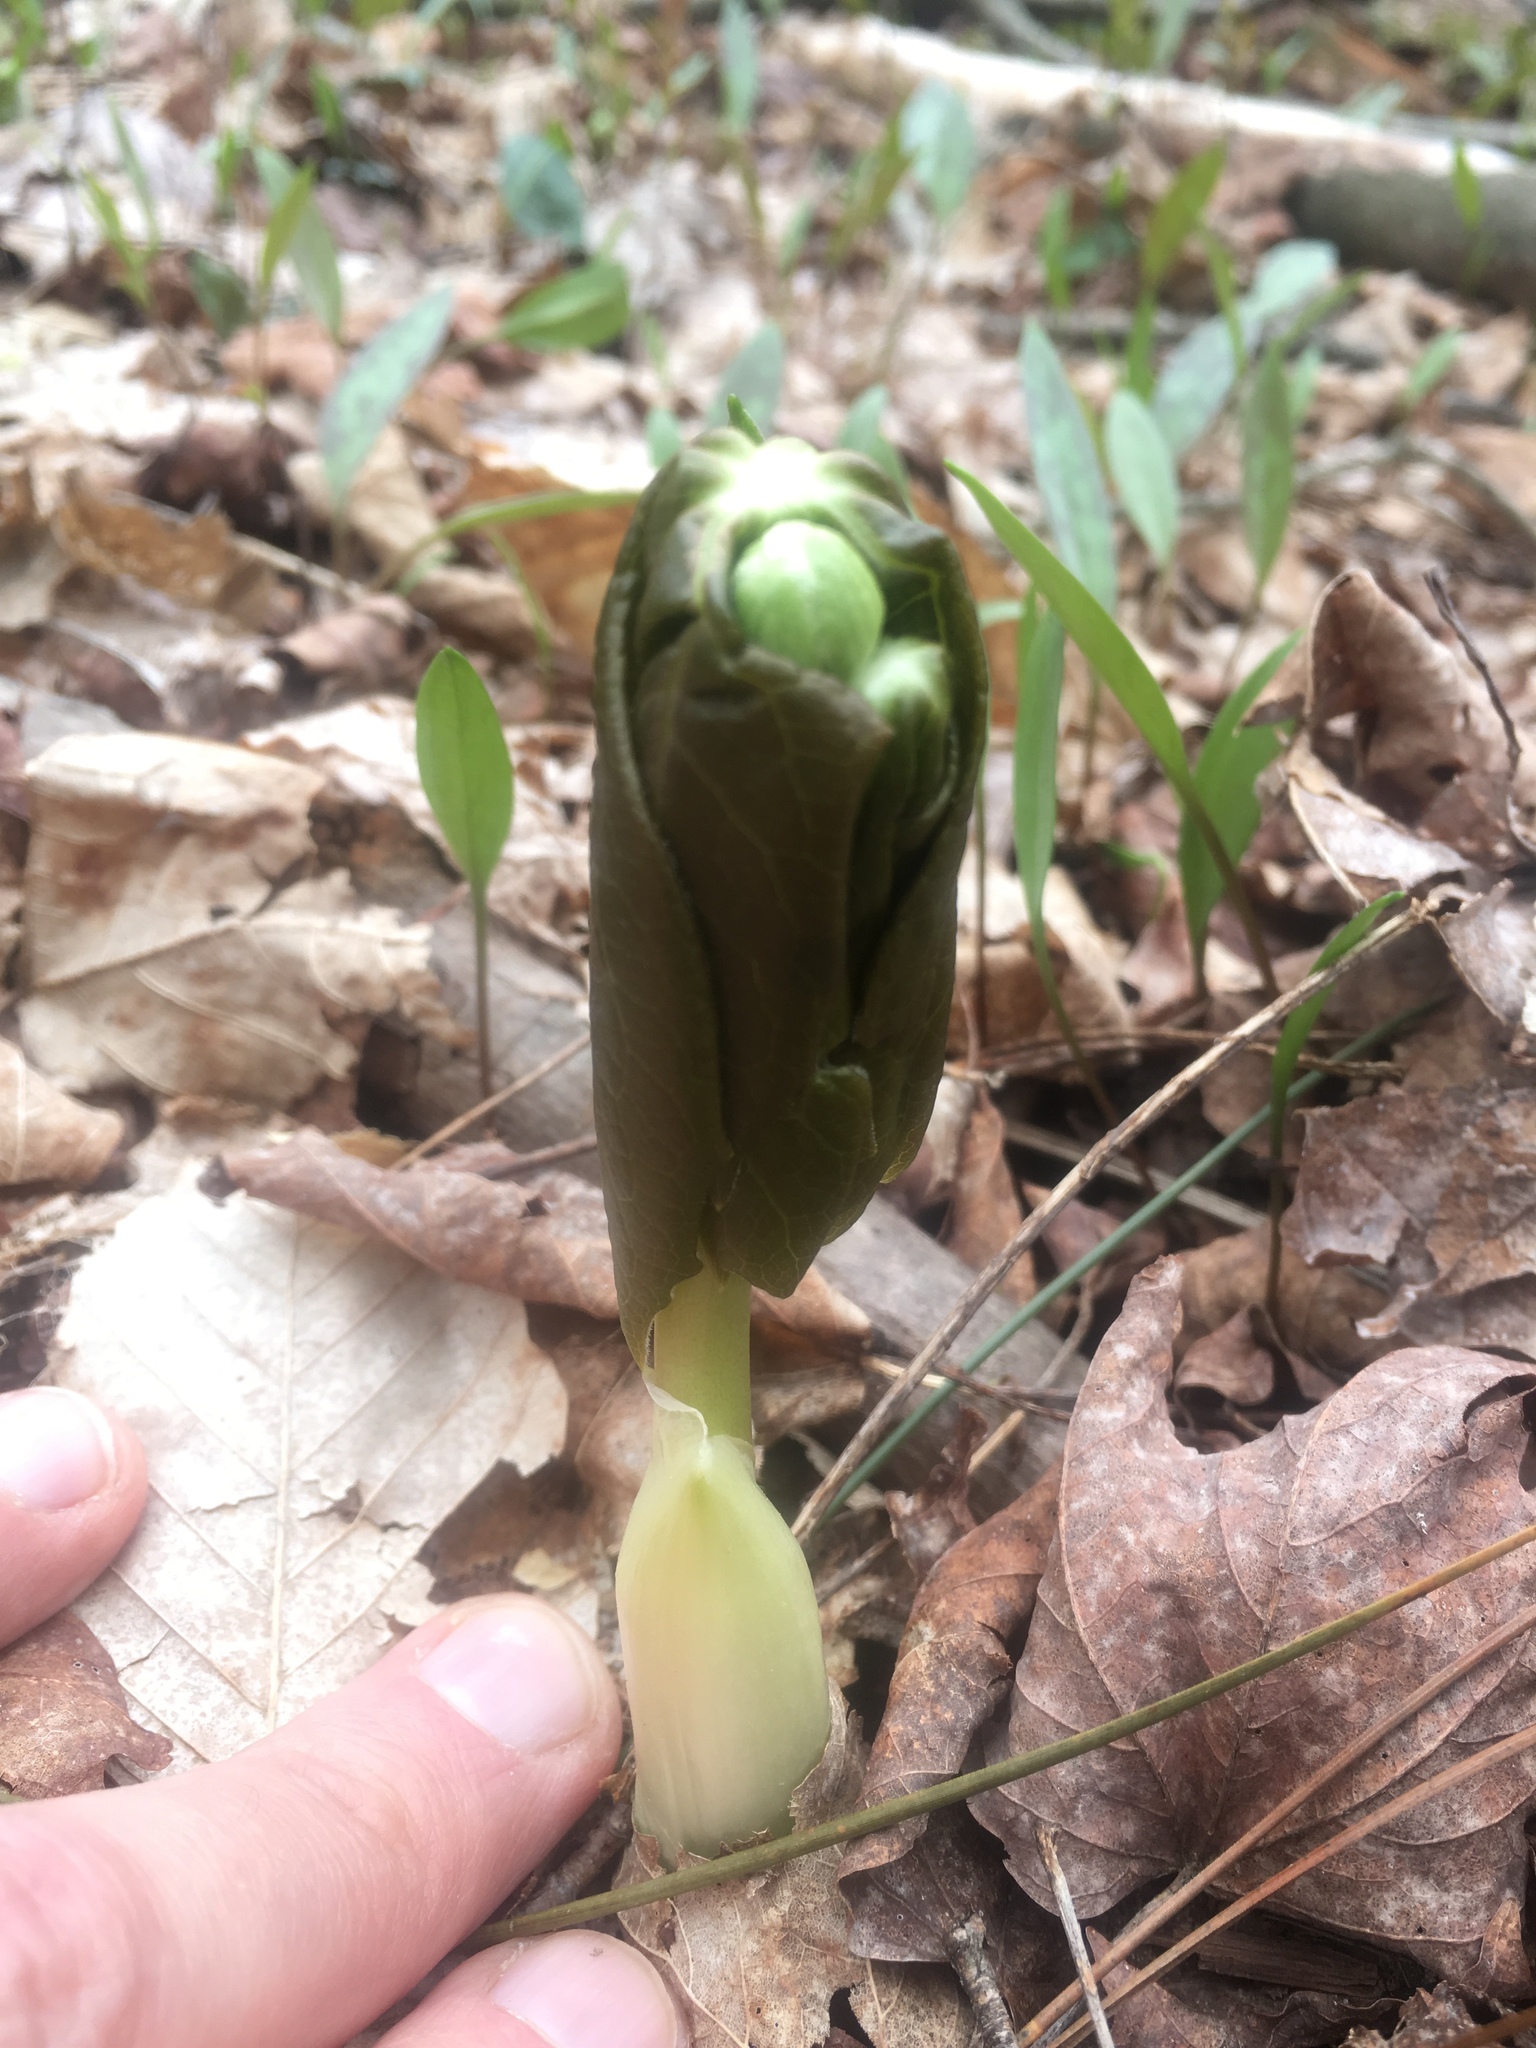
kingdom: Plantae
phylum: Tracheophyta
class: Magnoliopsida
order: Ranunculales
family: Berberidaceae
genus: Podophyllum
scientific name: Podophyllum peltatum
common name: Wild mandrake
